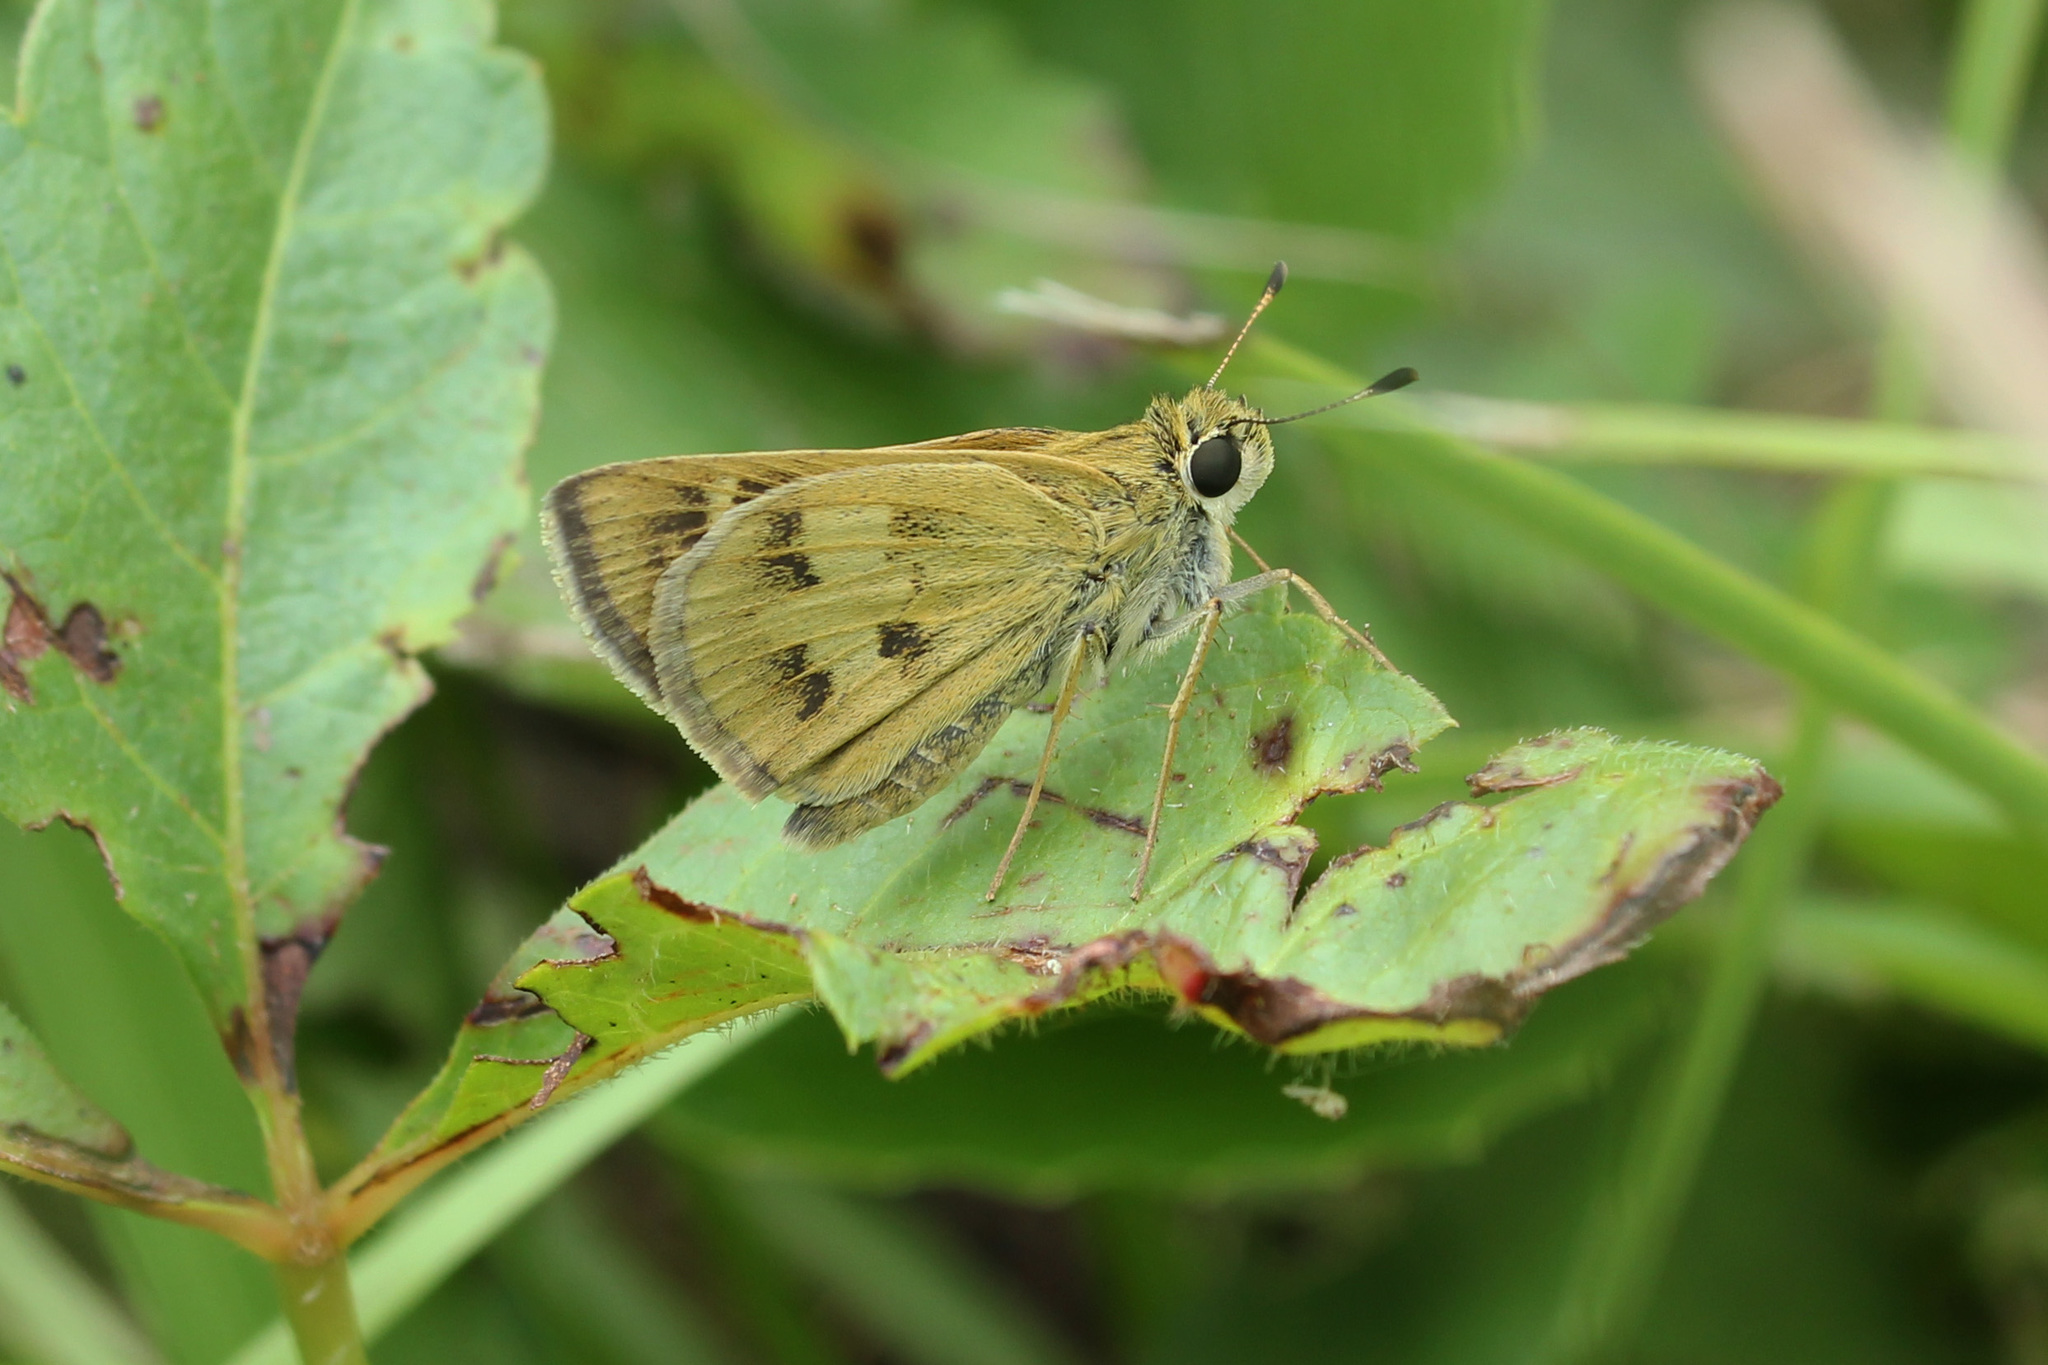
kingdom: Animalia
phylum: Arthropoda
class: Insecta
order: Lepidoptera
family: Hesperiidae
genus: Polites
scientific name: Polites vibex
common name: Whirlabout
